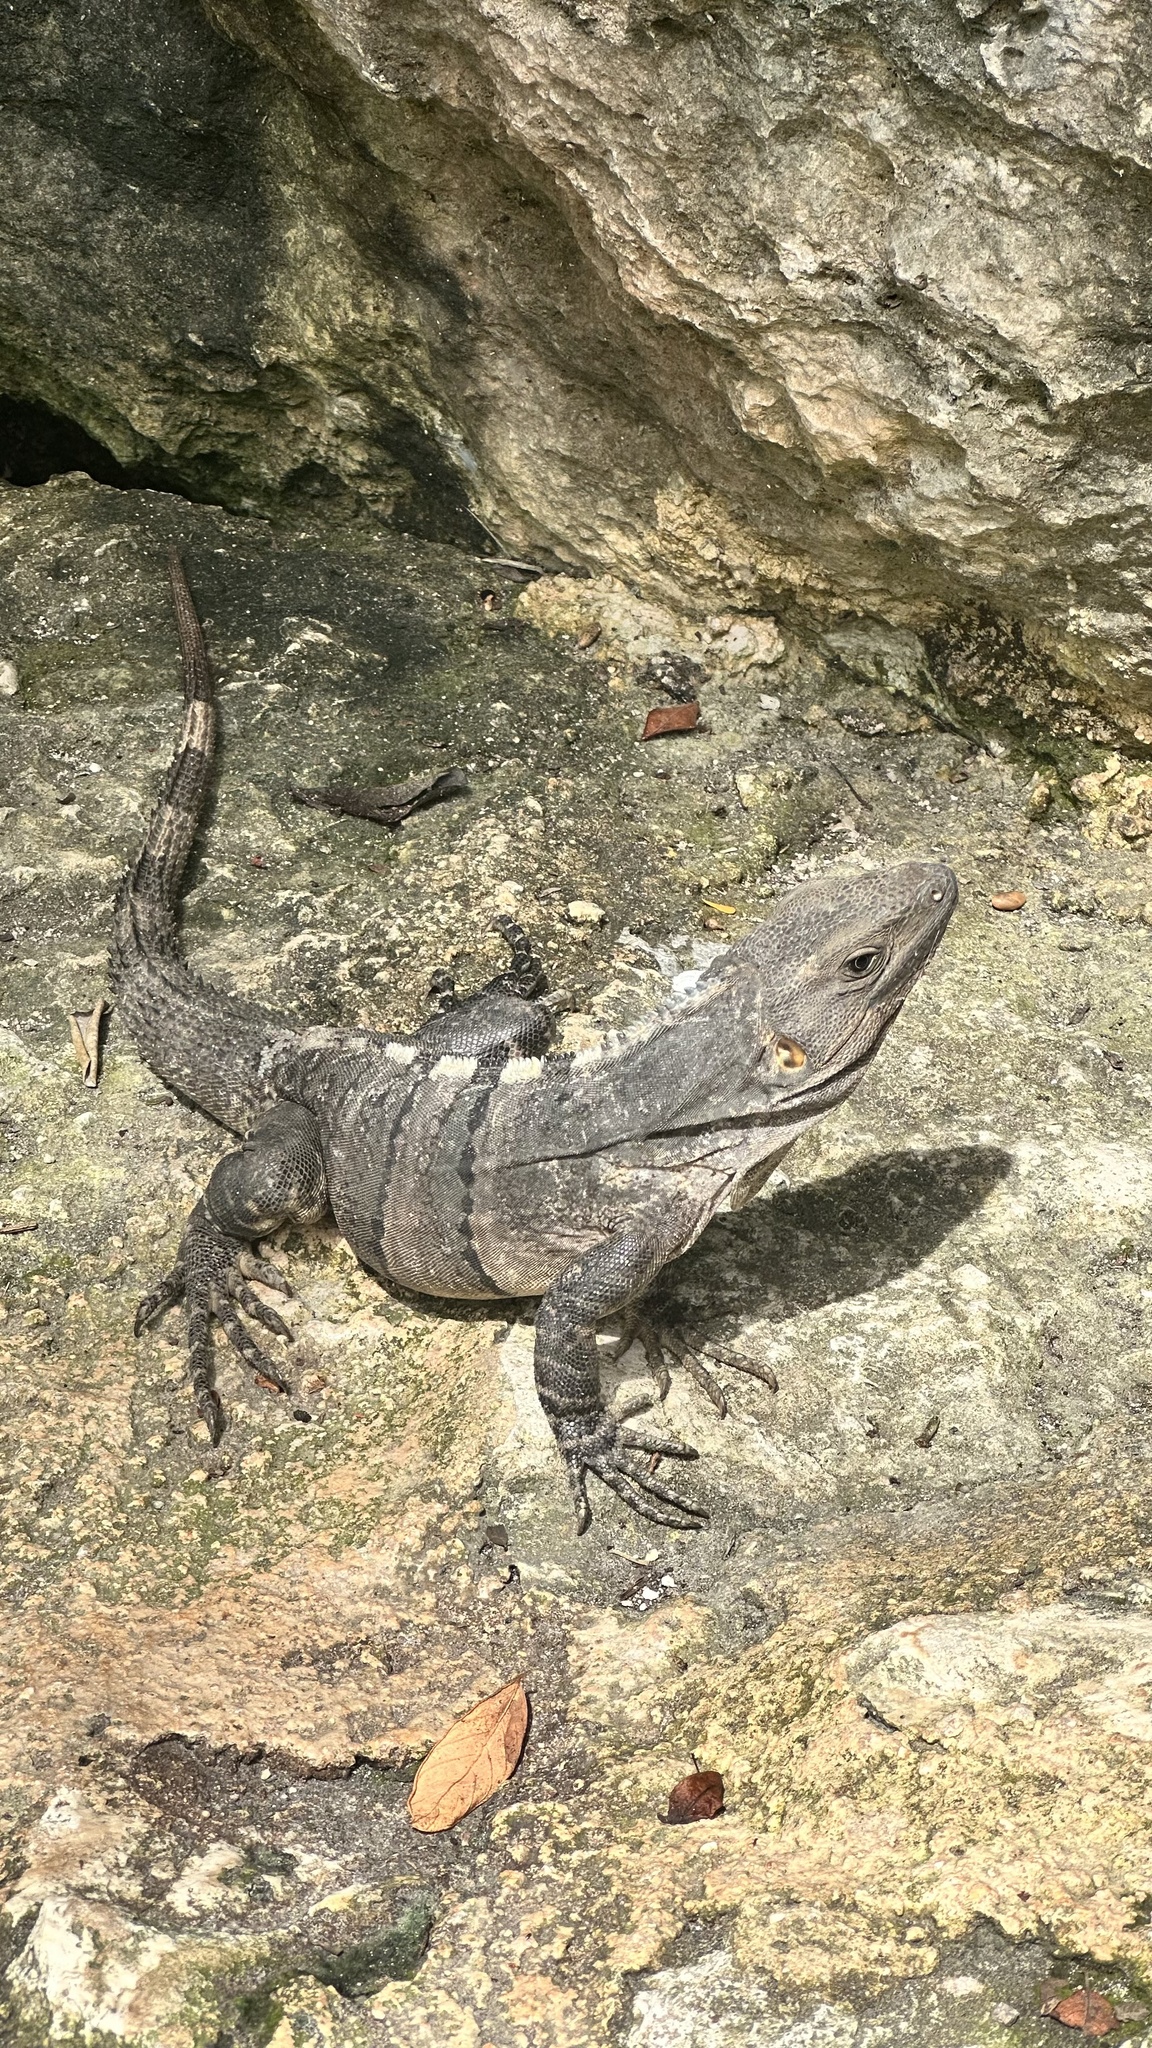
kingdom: Animalia
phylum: Chordata
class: Squamata
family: Iguanidae
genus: Ctenosaura
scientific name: Ctenosaura similis
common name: Black spiny-tailed iguana
